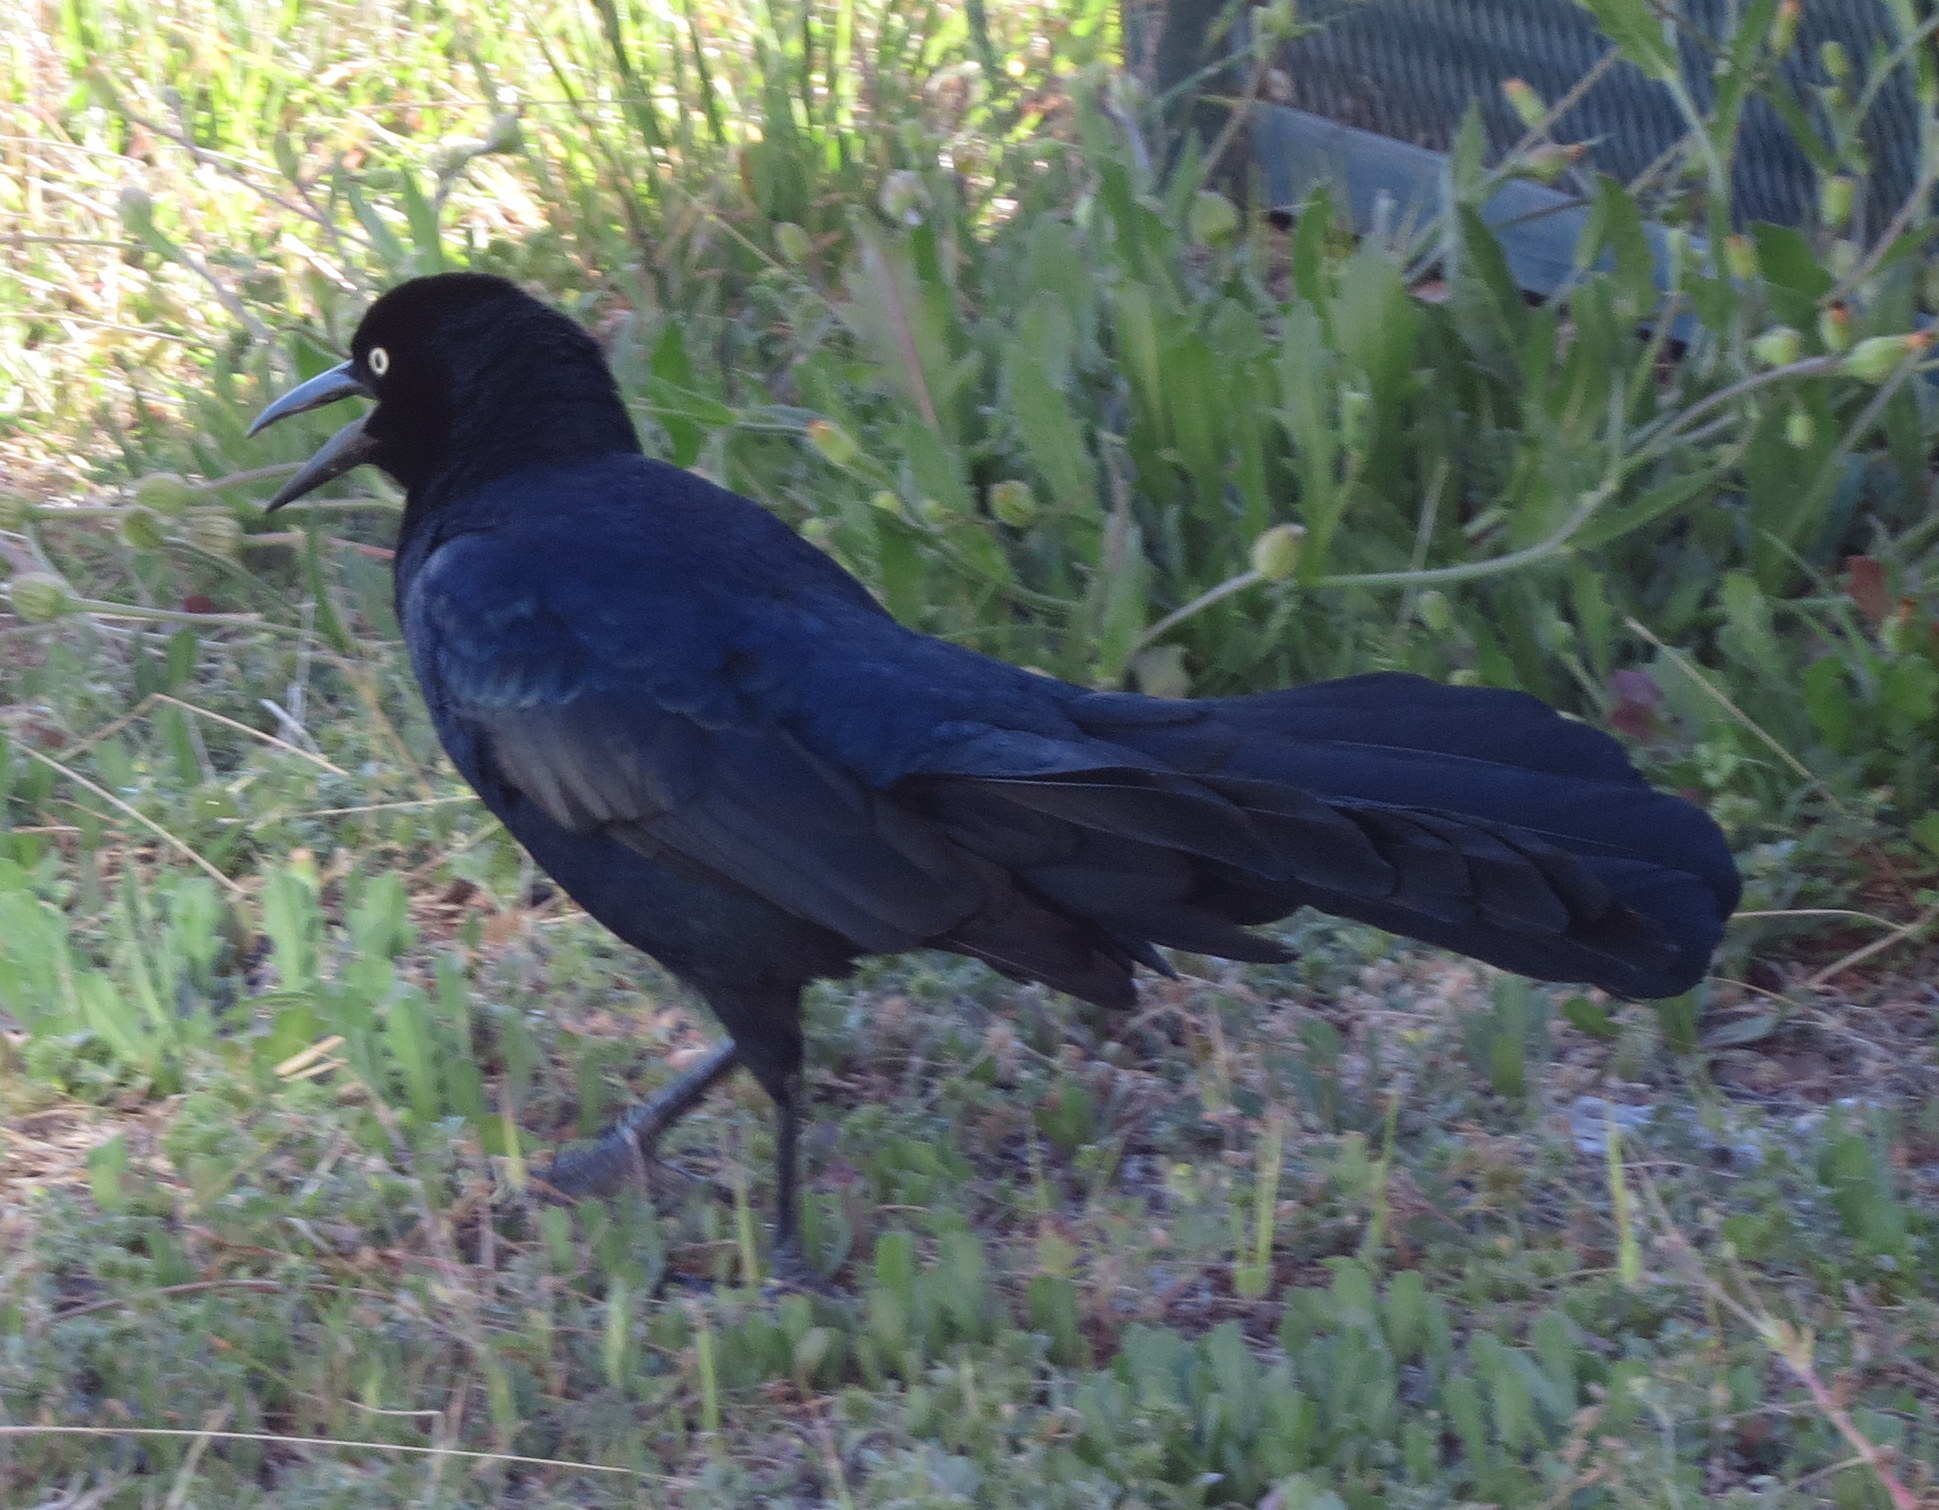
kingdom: Animalia
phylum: Chordata
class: Aves
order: Passeriformes
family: Icteridae
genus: Quiscalus
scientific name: Quiscalus mexicanus
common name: Great-tailed grackle
